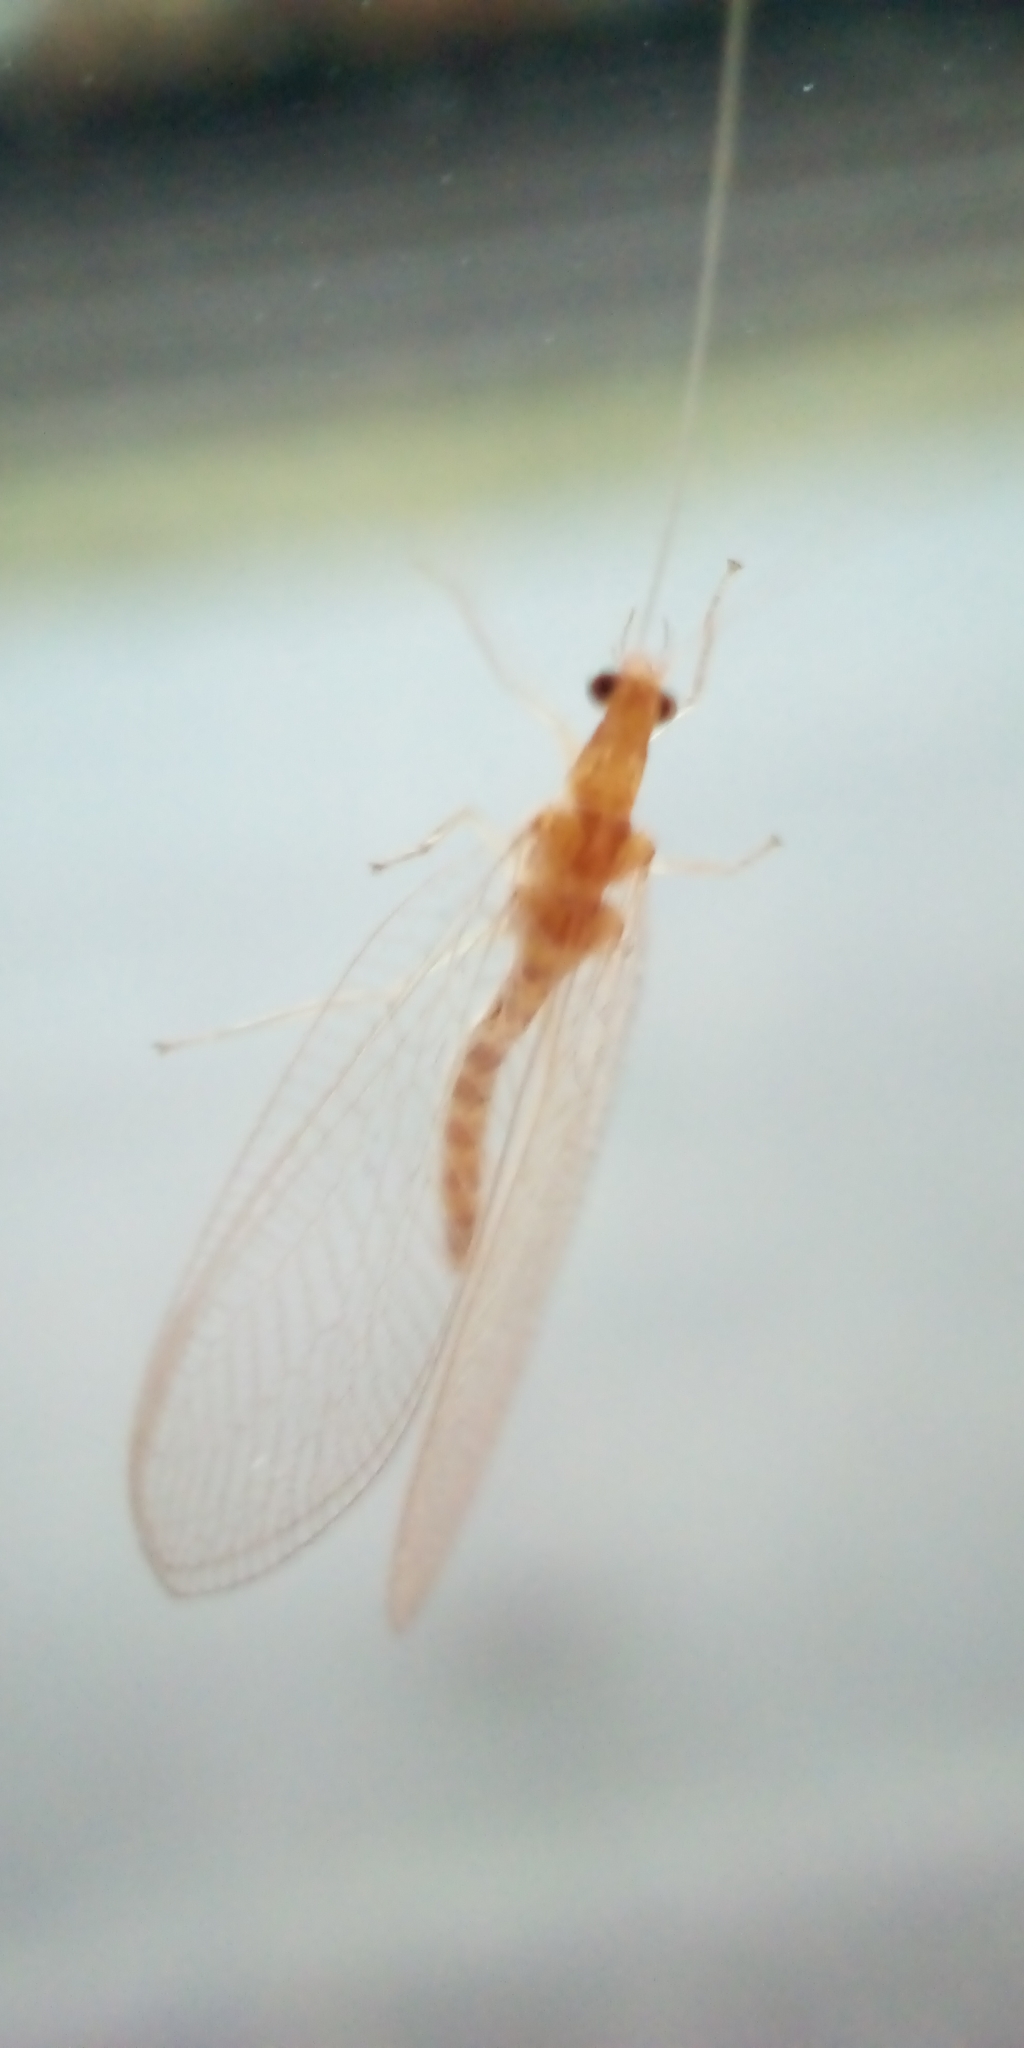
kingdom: Animalia
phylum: Arthropoda
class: Insecta
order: Neuroptera
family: Chrysopidae
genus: Chrysoperla
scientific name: Chrysoperla
